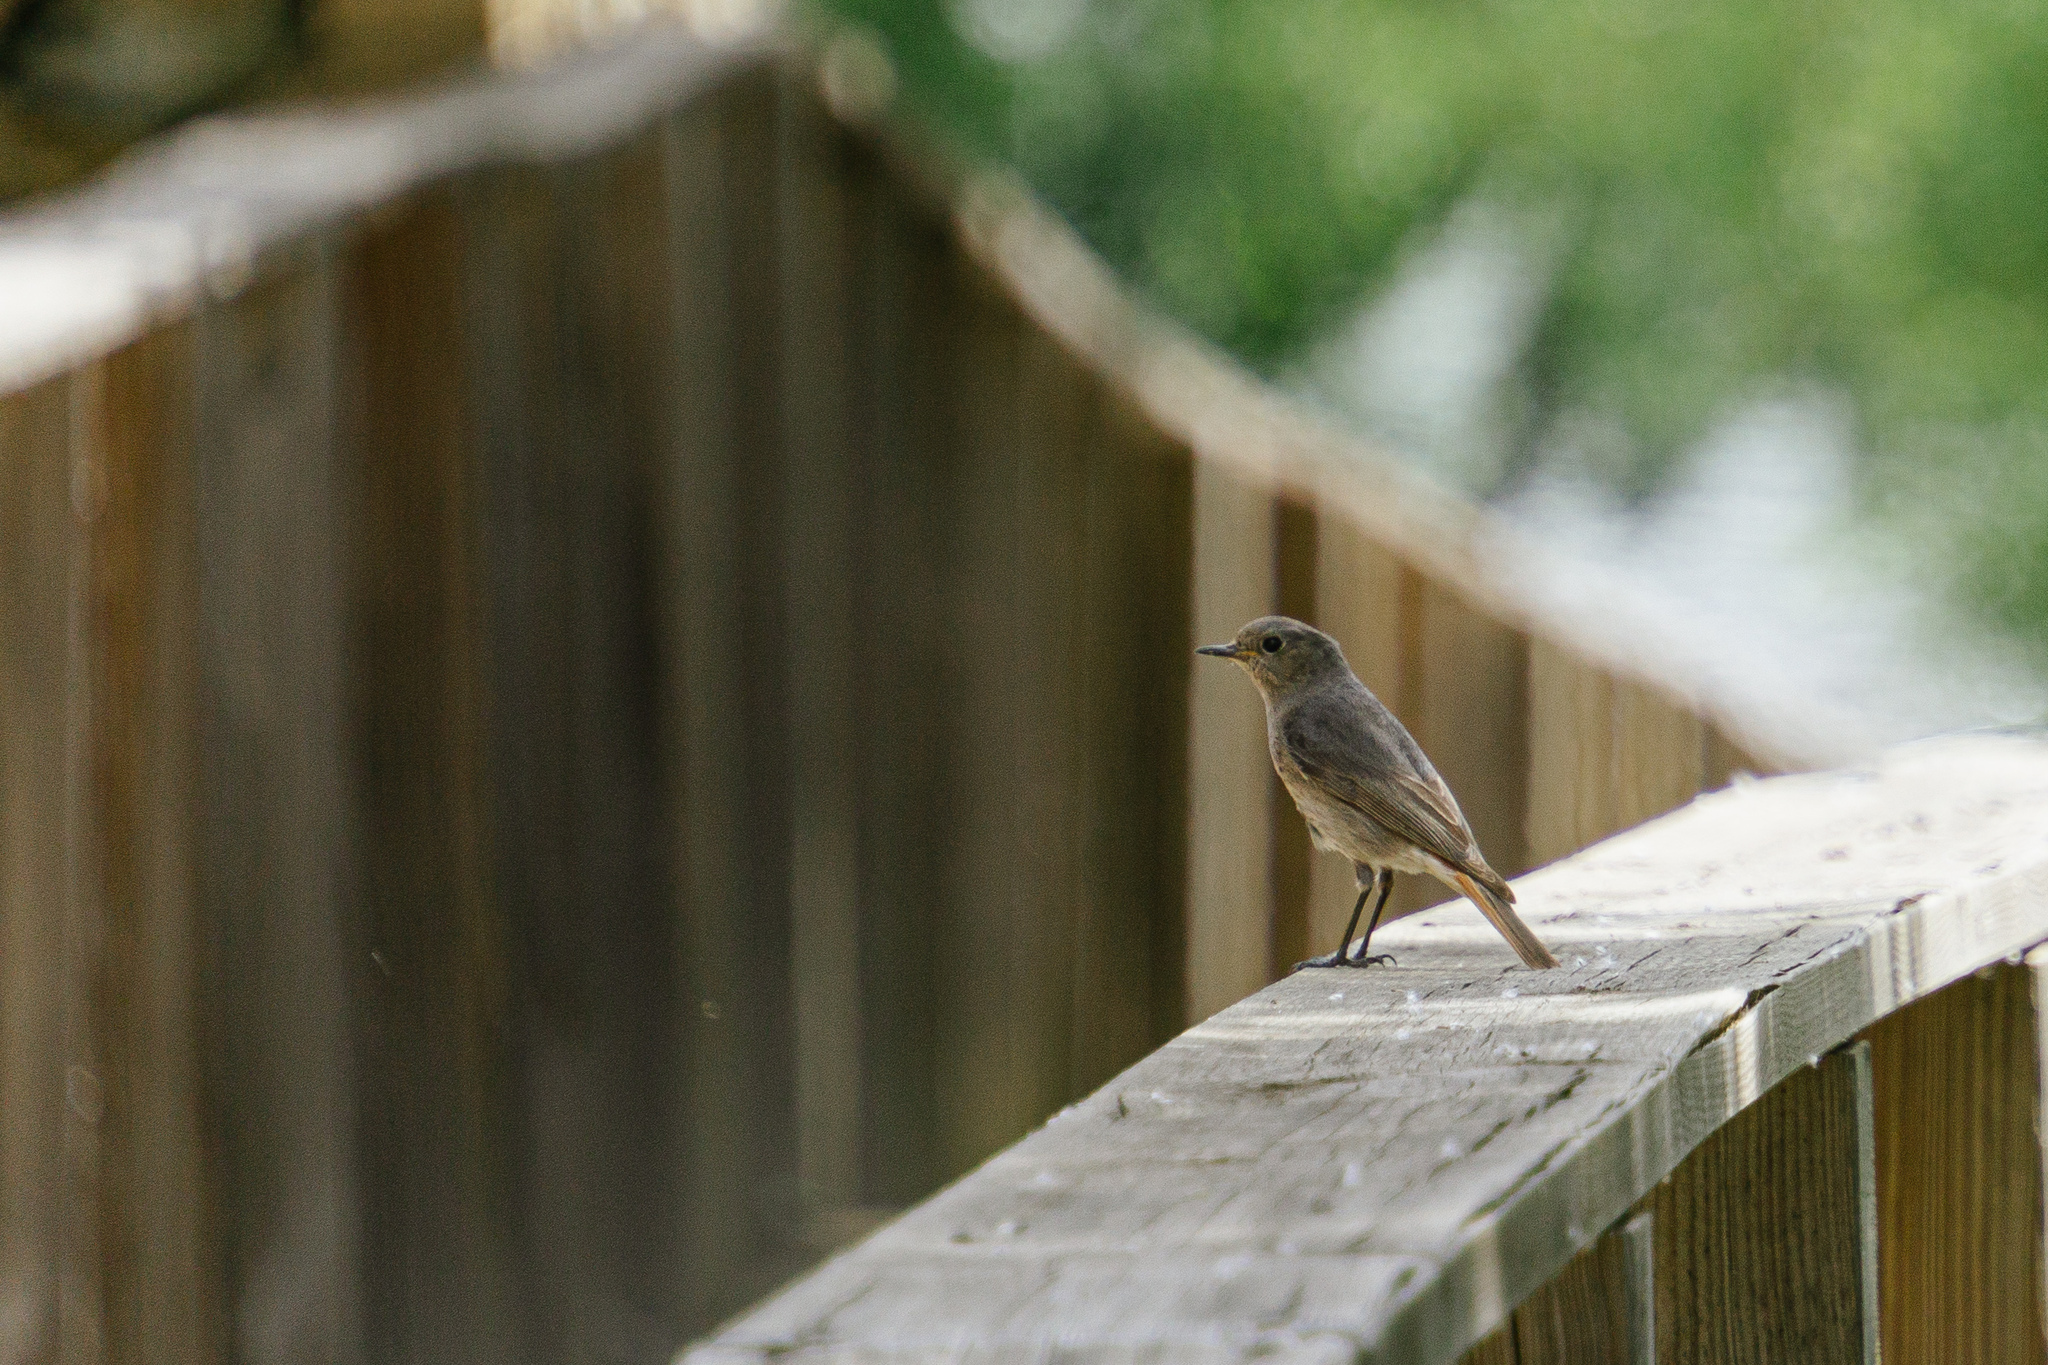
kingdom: Animalia
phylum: Chordata
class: Aves
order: Passeriformes
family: Muscicapidae
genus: Phoenicurus
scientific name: Phoenicurus ochruros
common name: Black redstart
